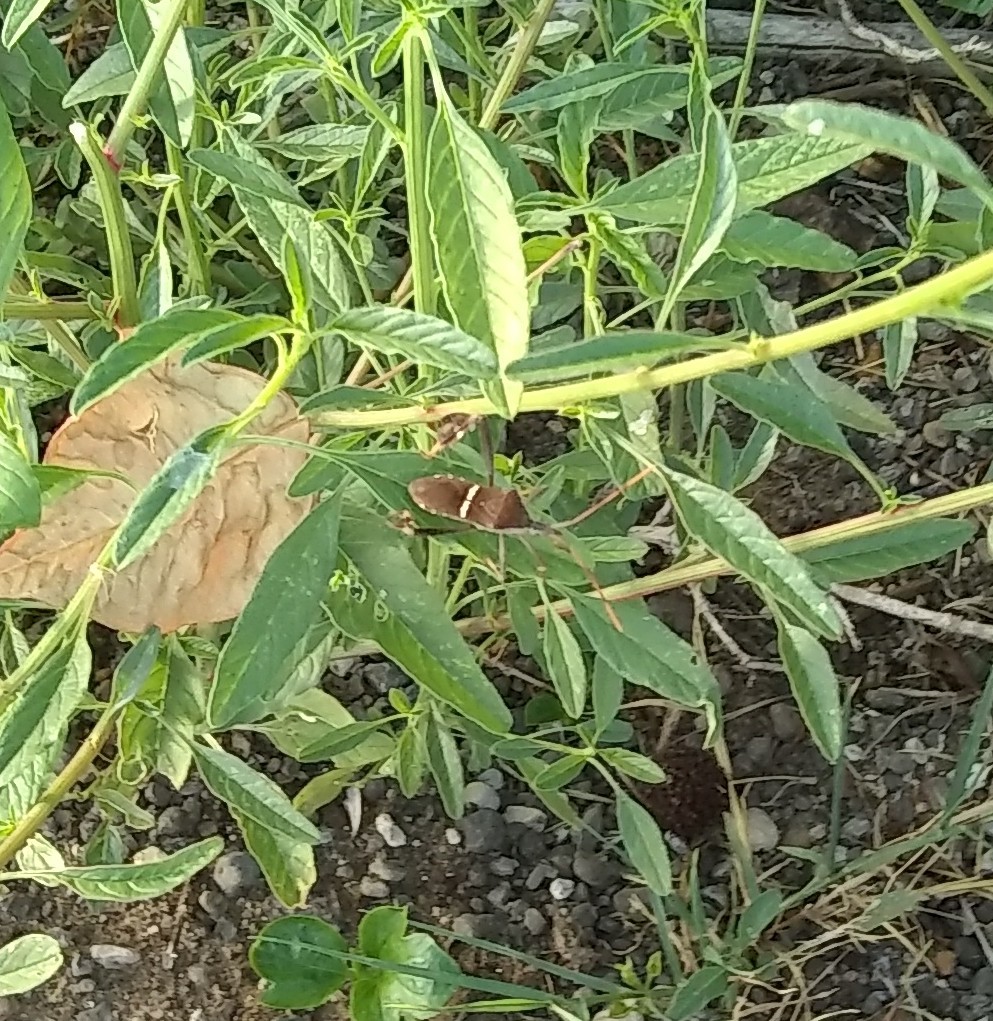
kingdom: Animalia
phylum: Arthropoda
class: Insecta
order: Hemiptera
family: Coreidae
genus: Leptoglossus
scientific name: Leptoglossus phyllopus
